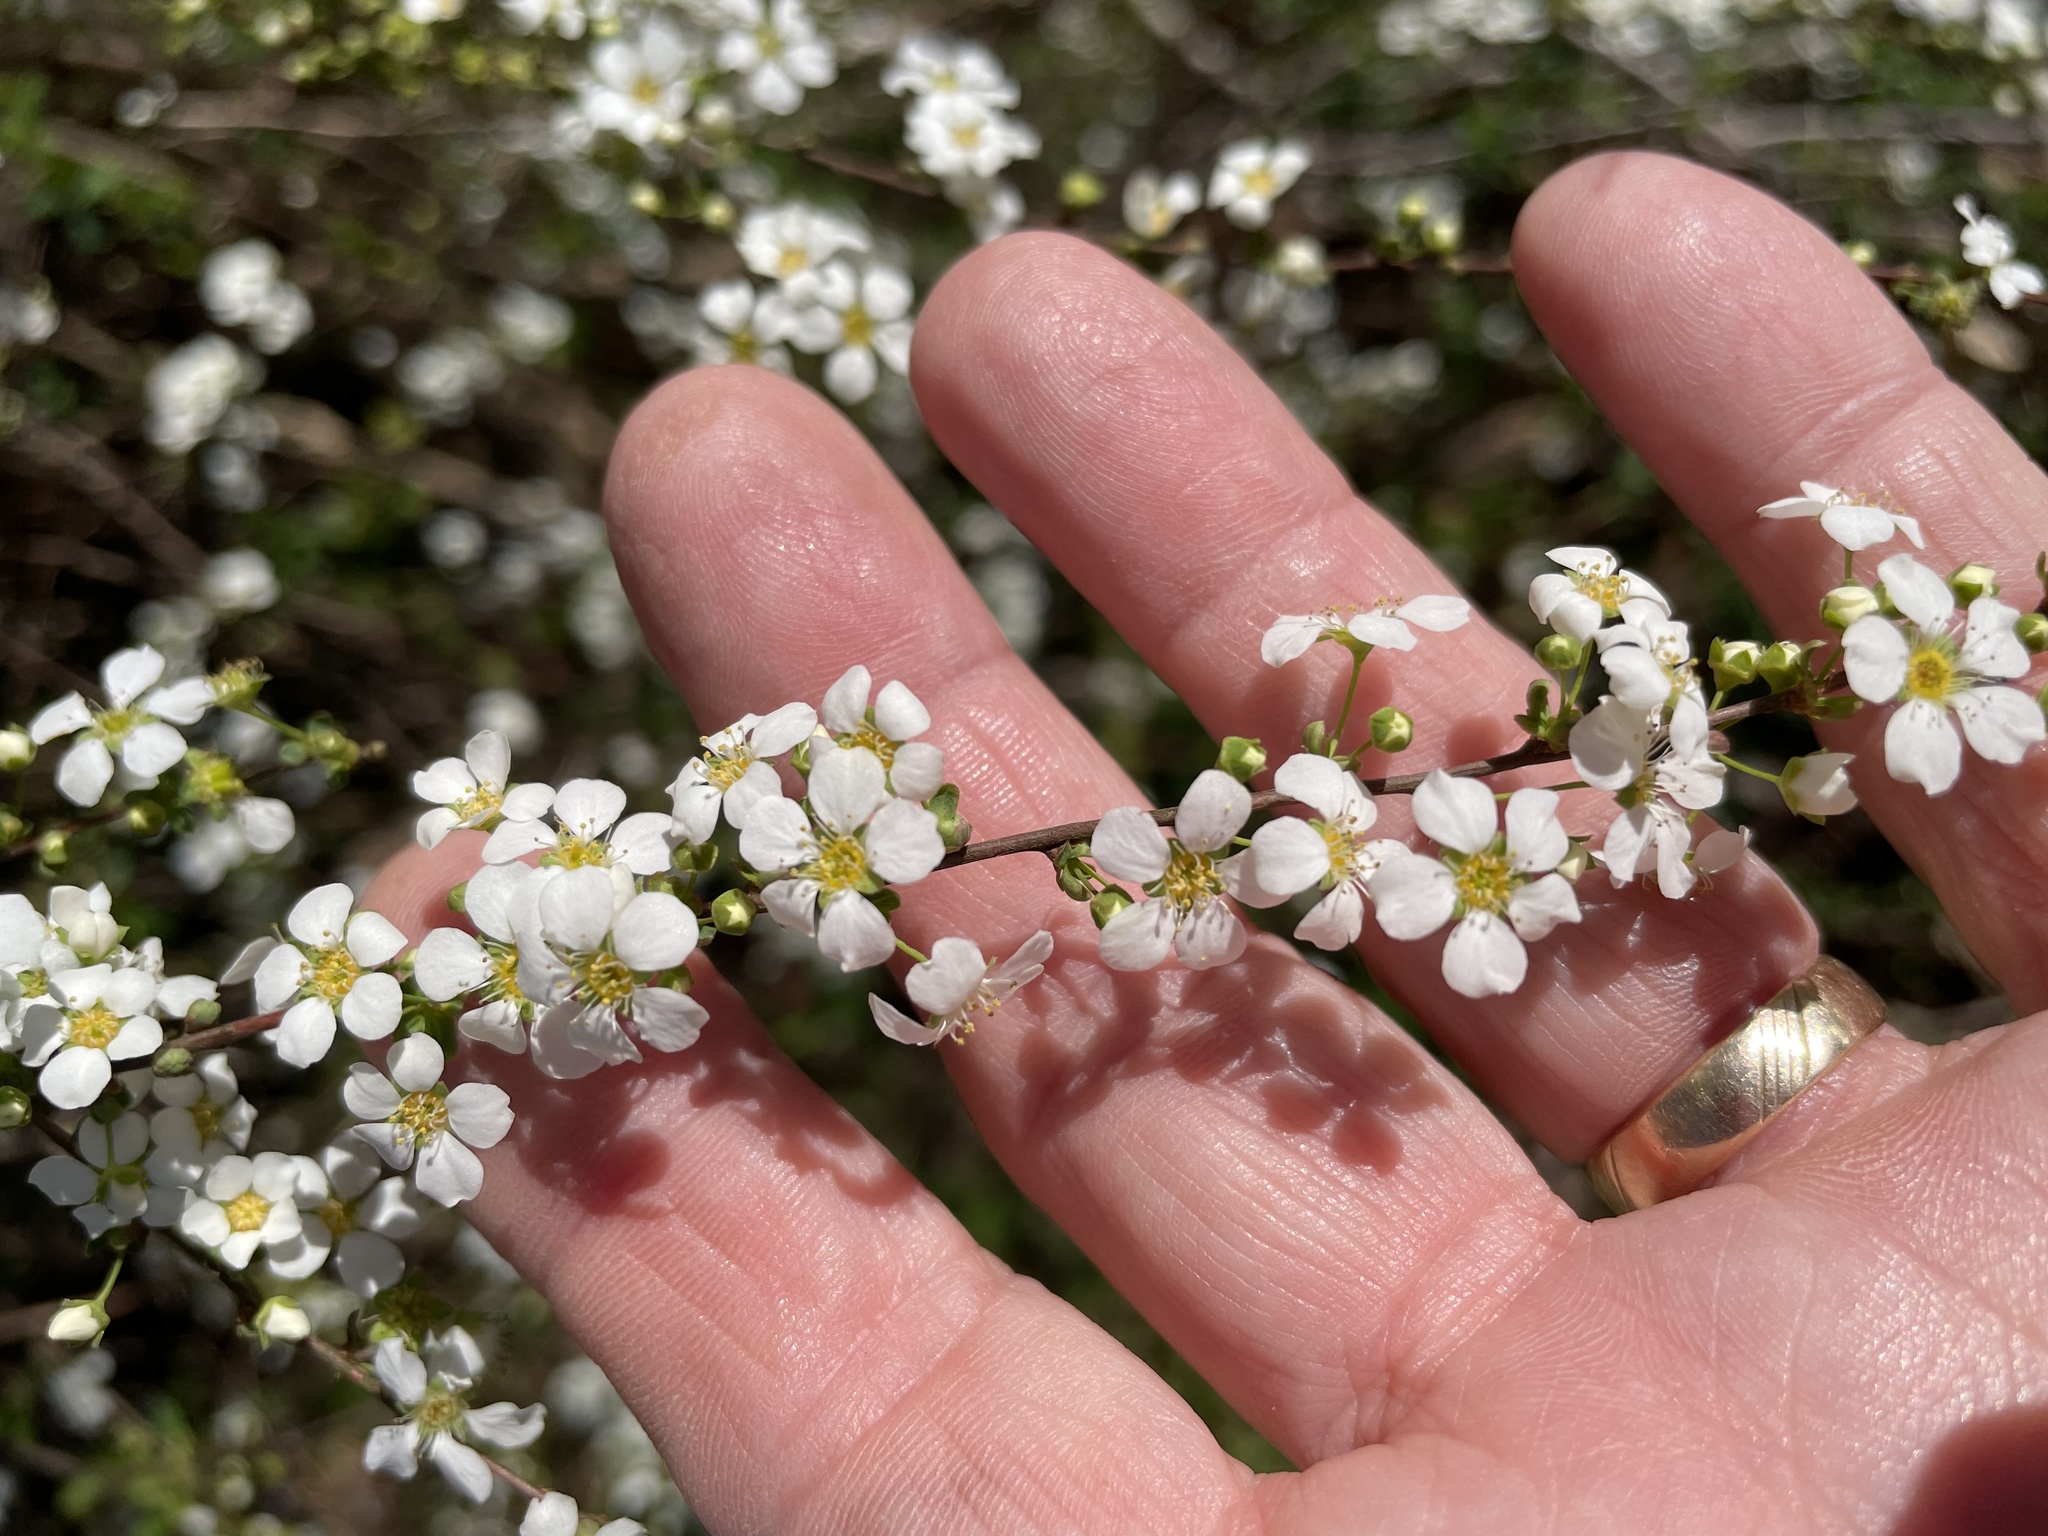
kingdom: Plantae
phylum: Tracheophyta
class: Magnoliopsida
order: Rosales
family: Rosaceae
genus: Spiraea
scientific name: Spiraea thunbergii
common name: Thunberg's meadowsweet
